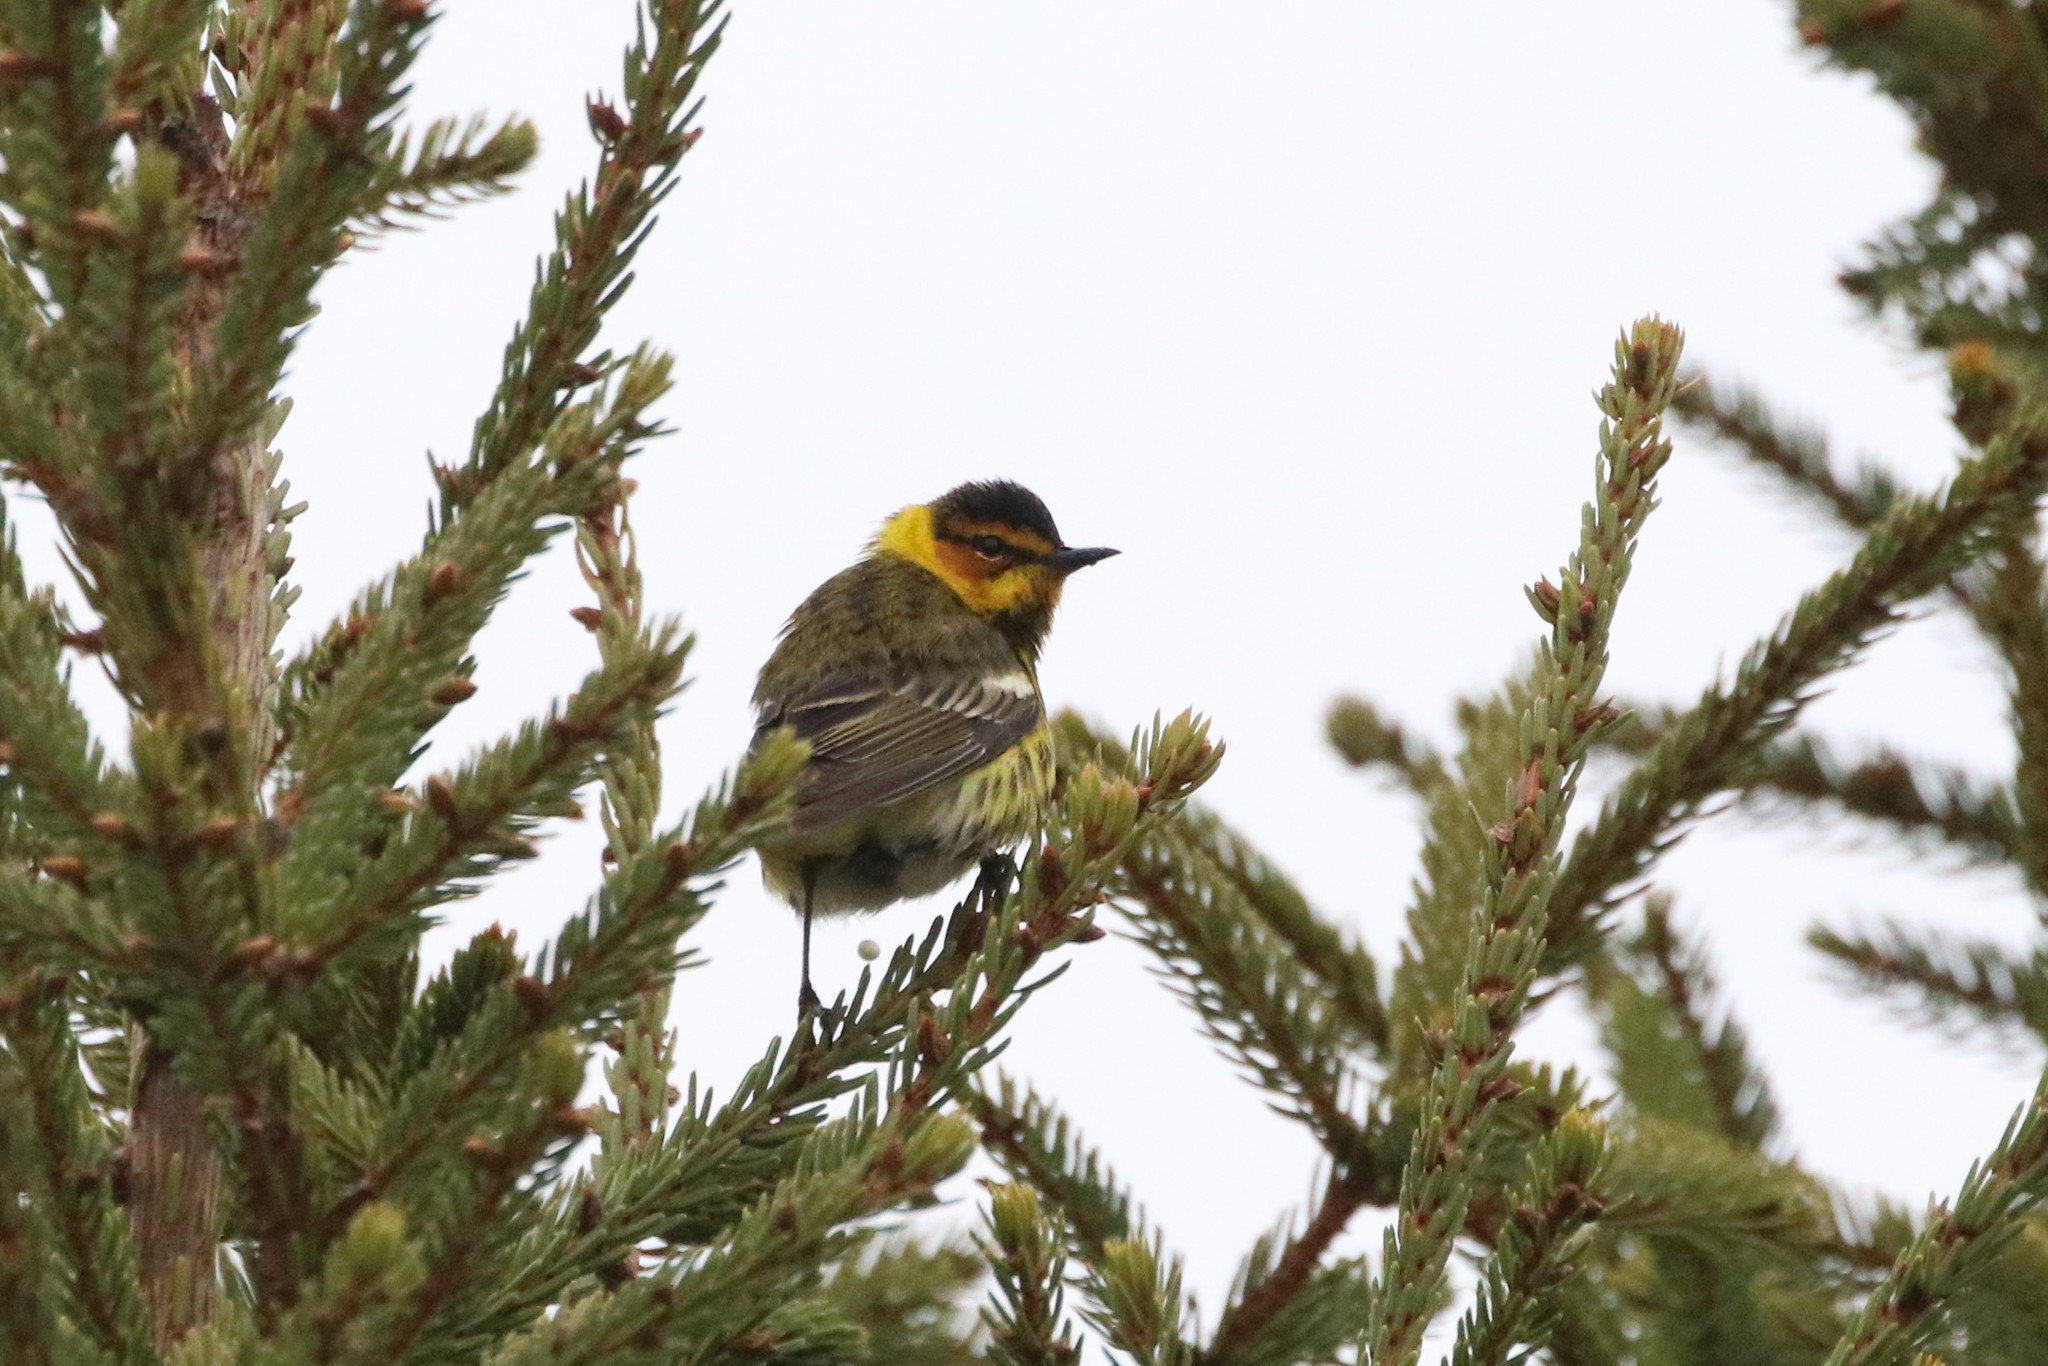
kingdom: Animalia
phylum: Chordata
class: Aves
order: Passeriformes
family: Parulidae
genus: Setophaga
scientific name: Setophaga tigrina
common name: Cape may warbler
